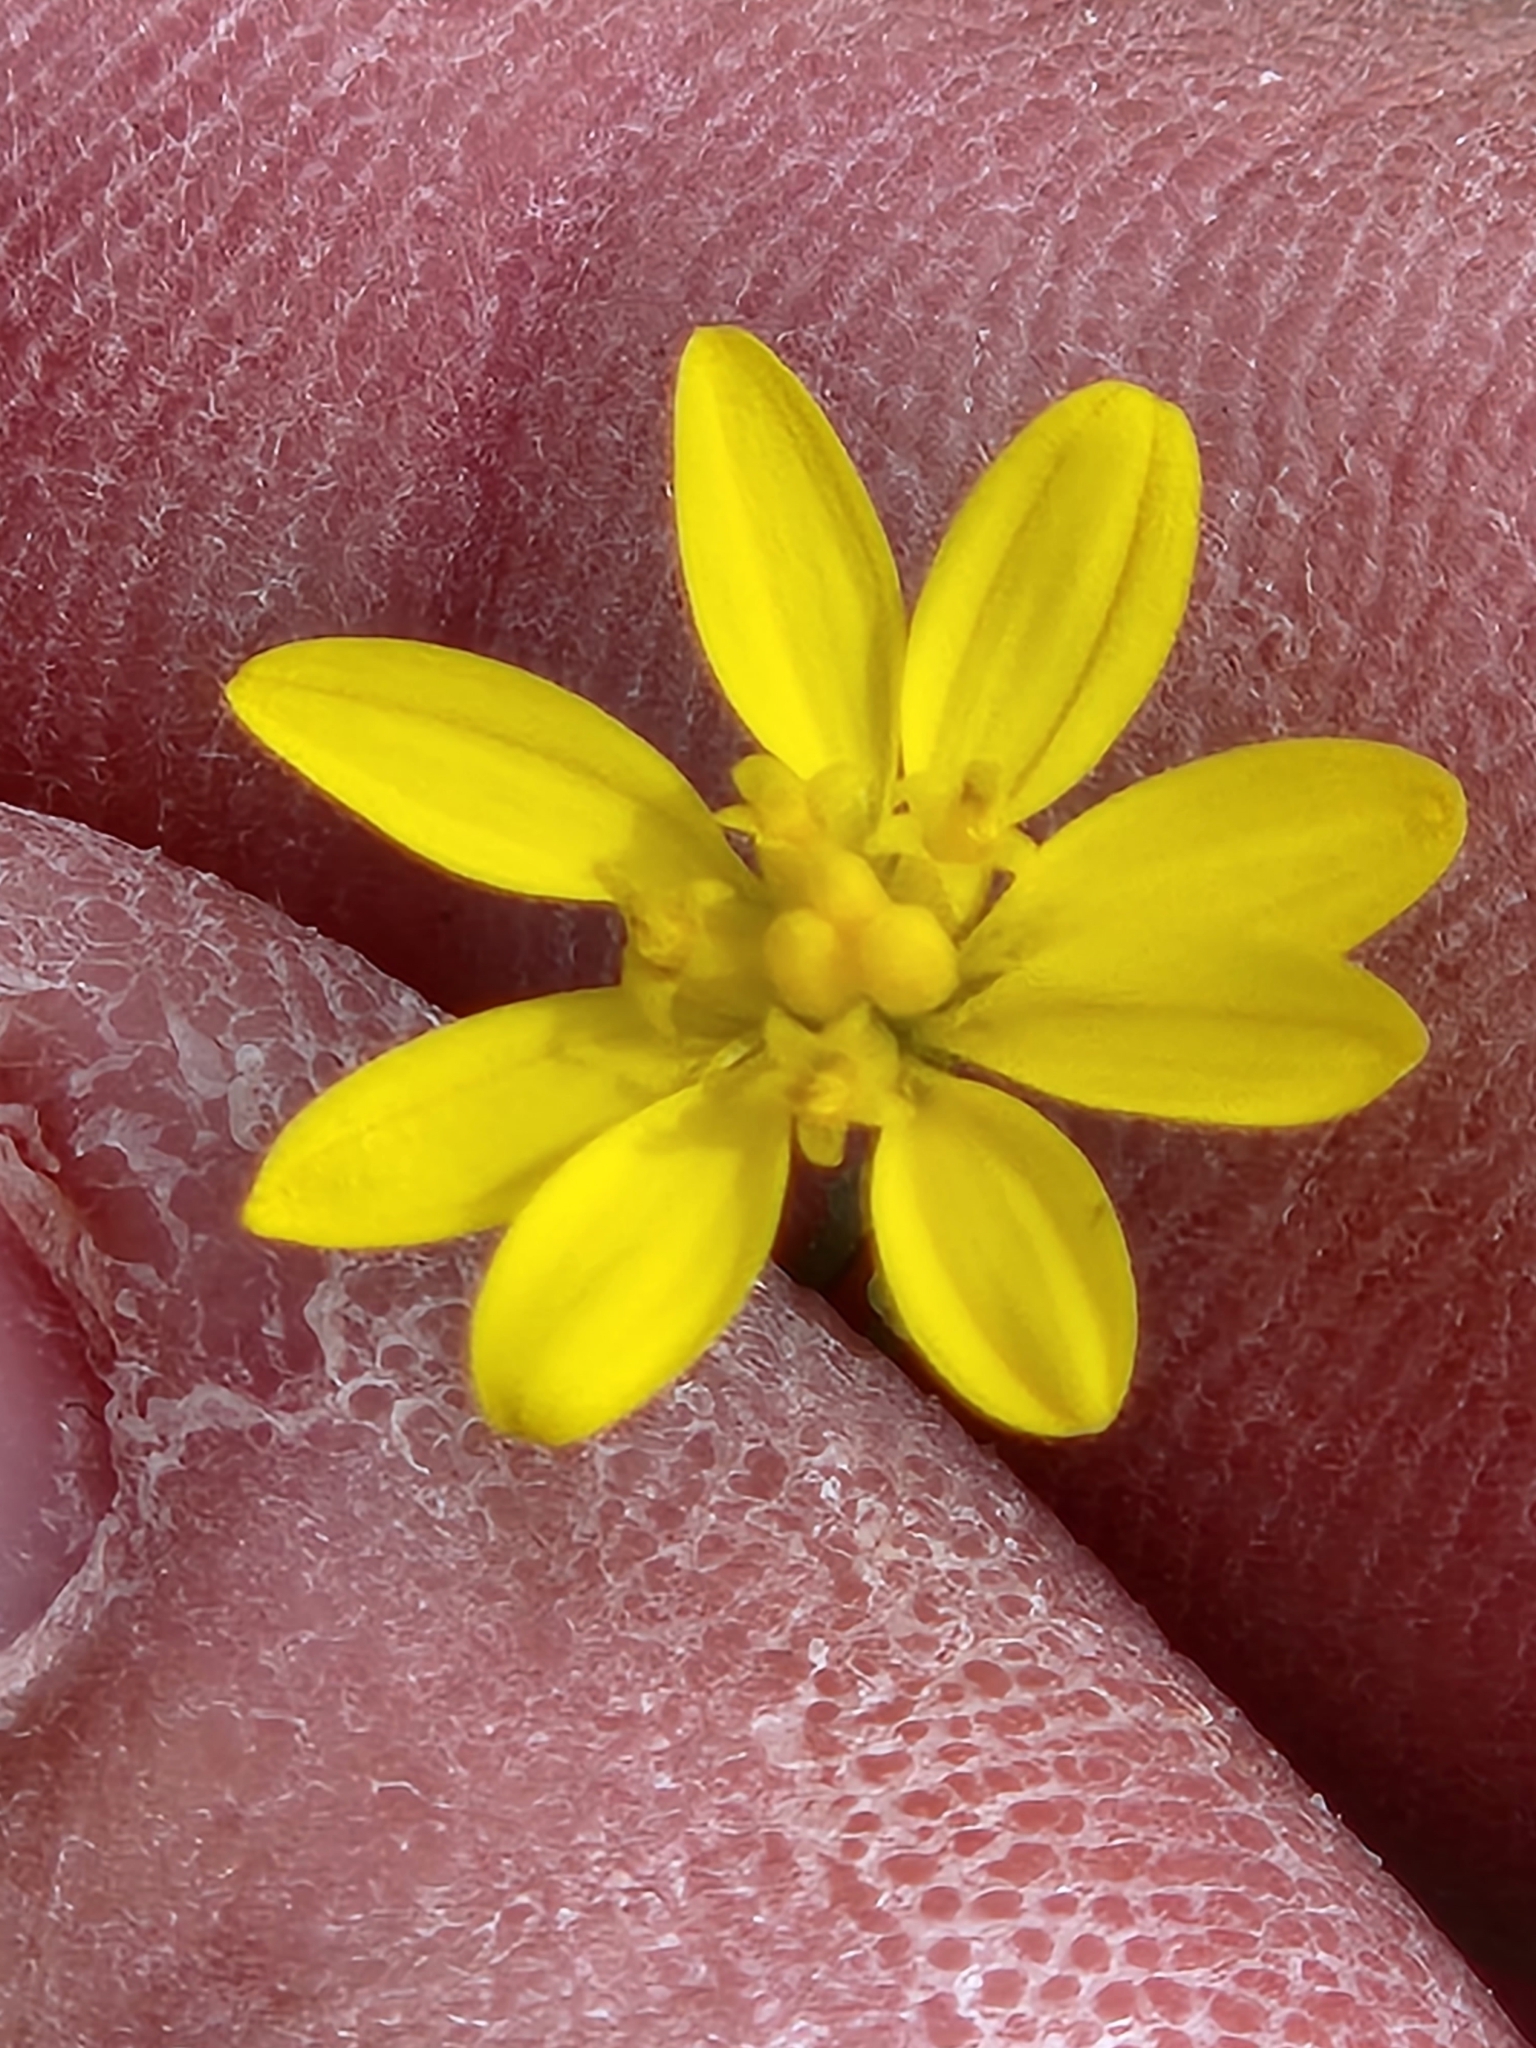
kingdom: Plantae
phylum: Tracheophyta
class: Magnoliopsida
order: Asterales
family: Asteraceae
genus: Gutierrezia
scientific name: Gutierrezia texana
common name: Texas snakeweed
